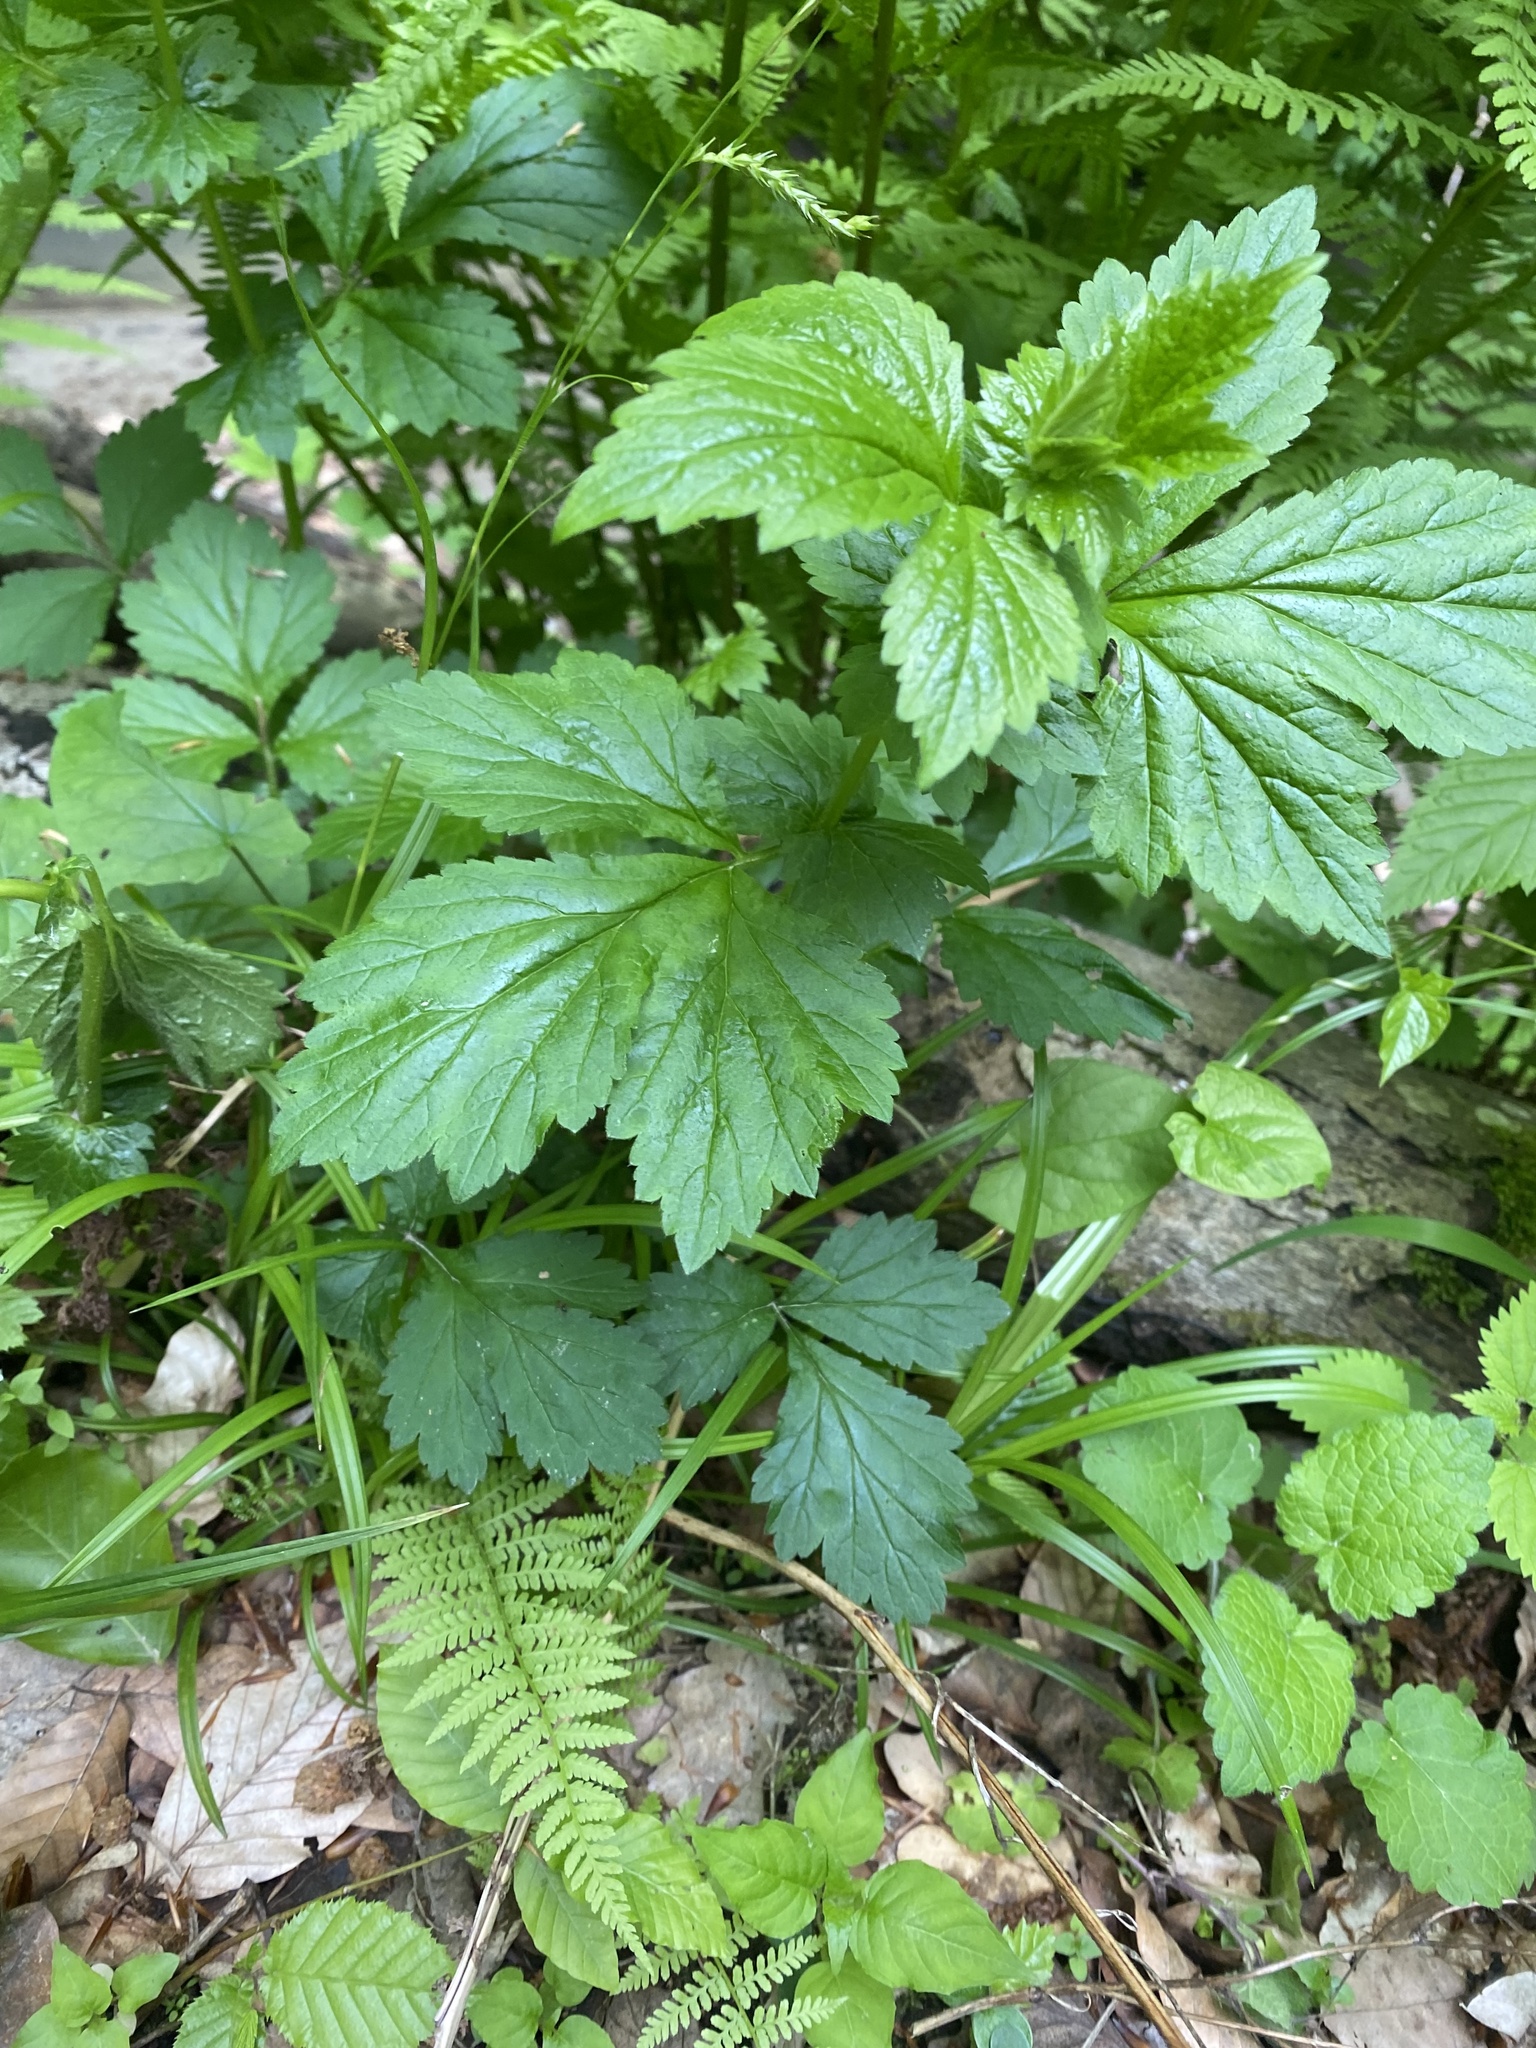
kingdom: Plantae
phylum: Tracheophyta
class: Magnoliopsida
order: Rosales
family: Rosaceae
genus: Geum
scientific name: Geum urbanum
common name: Wood avens
